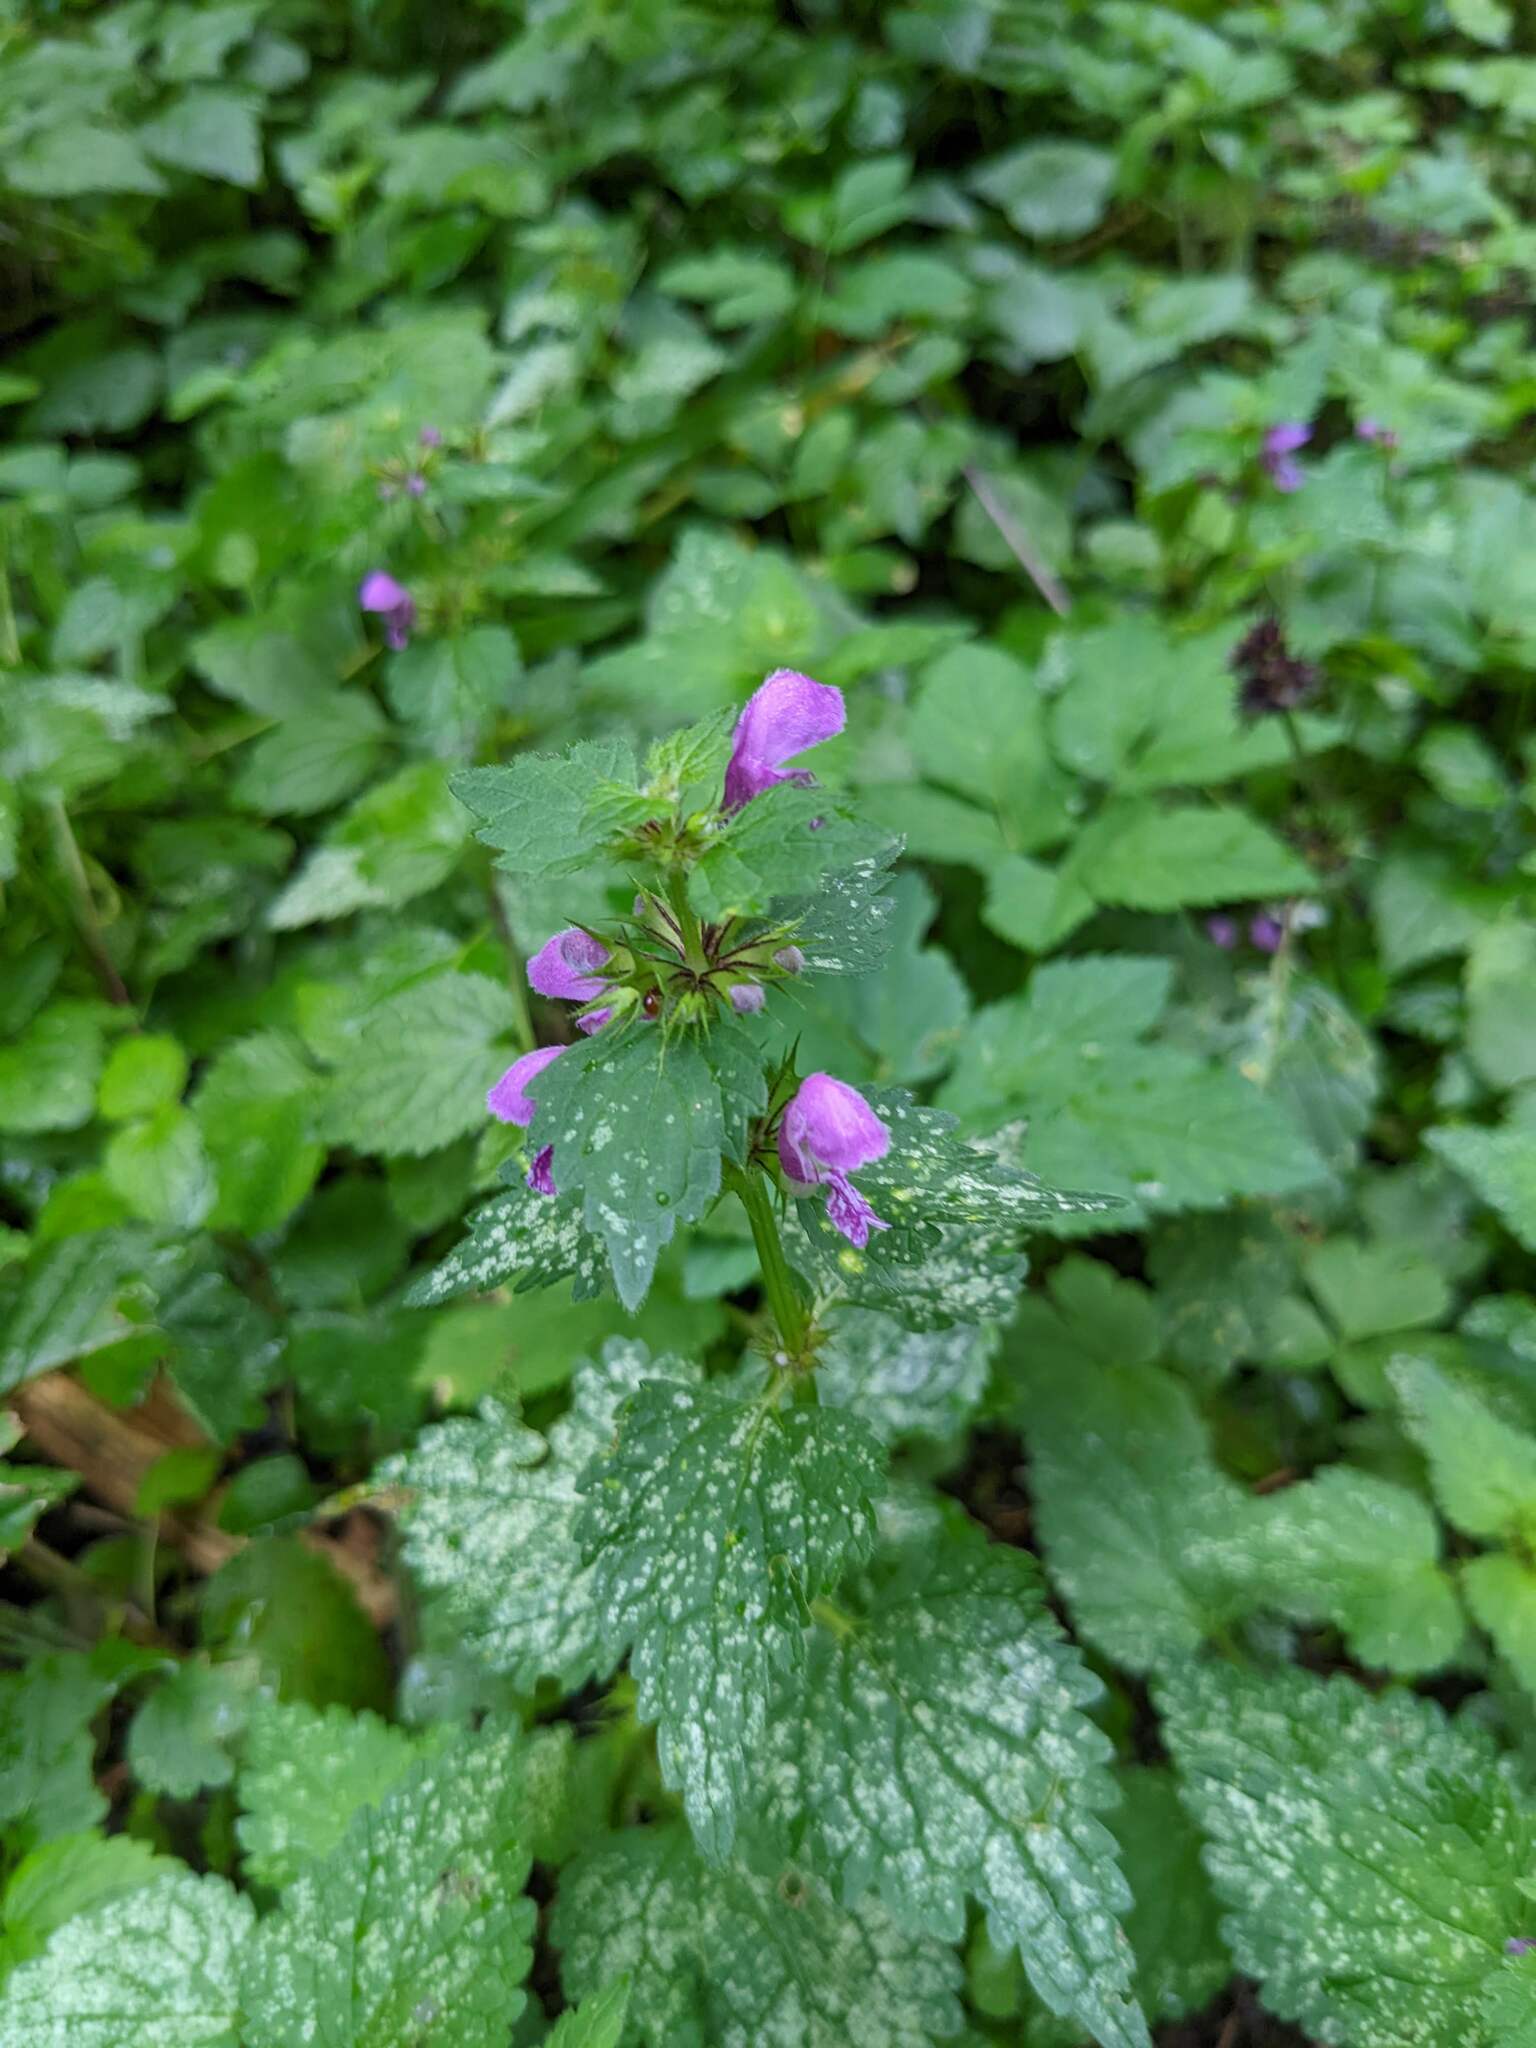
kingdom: Plantae
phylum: Tracheophyta
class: Magnoliopsida
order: Lamiales
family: Lamiaceae
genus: Lamium
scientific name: Lamium maculatum
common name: Spotted dead-nettle
